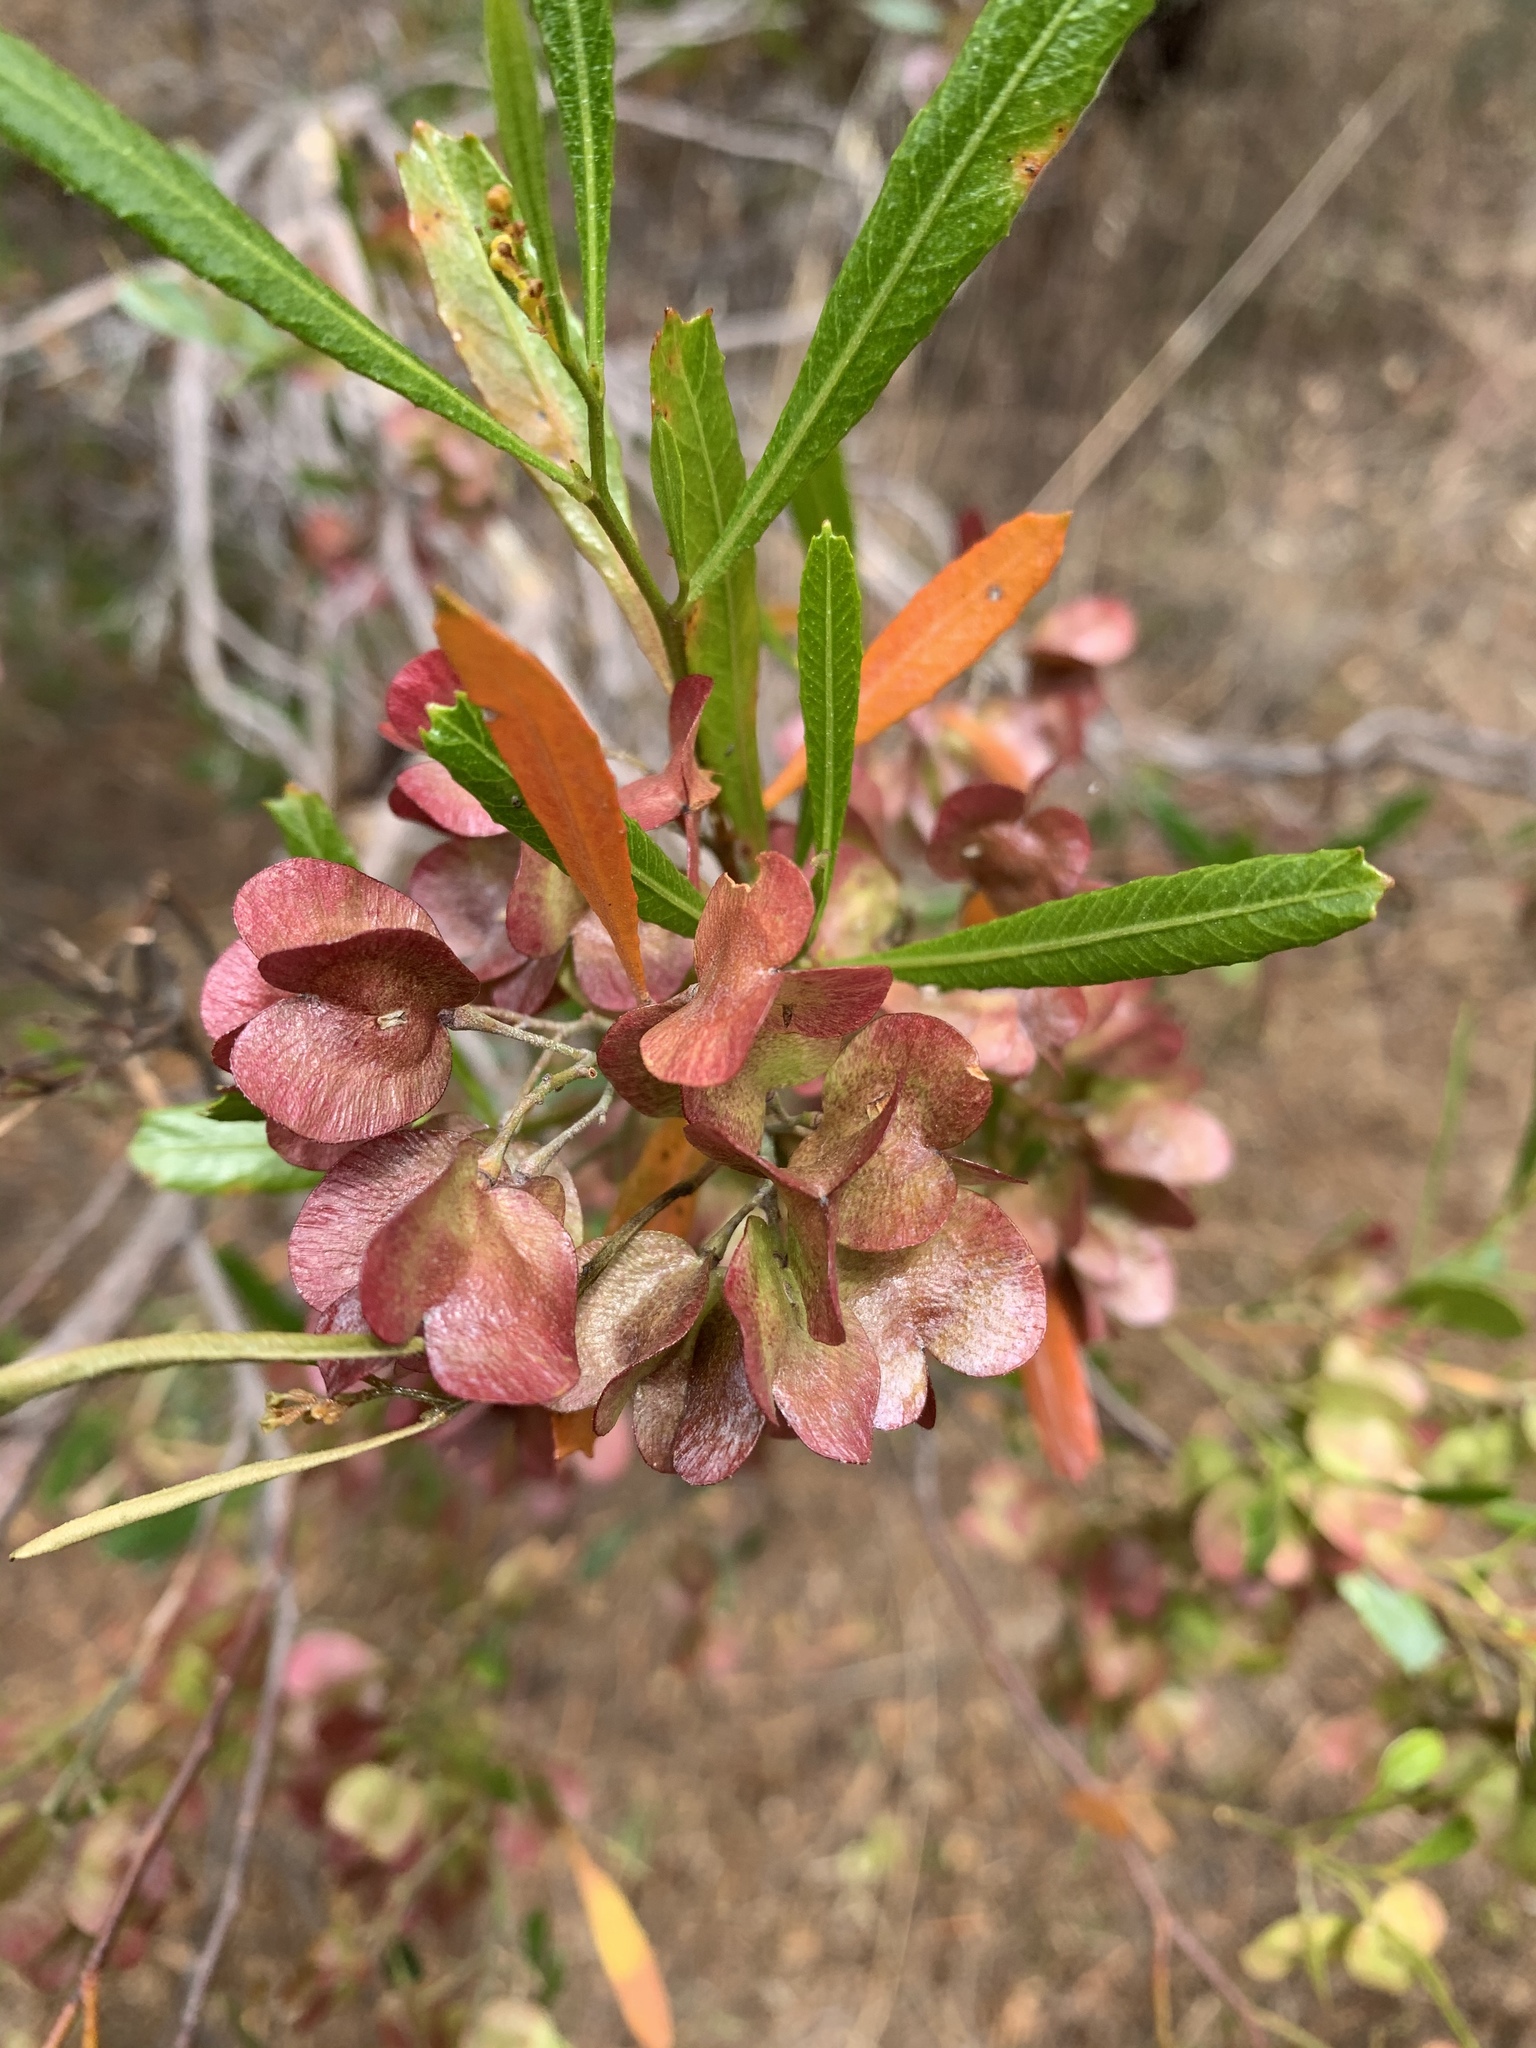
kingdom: Plantae
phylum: Tracheophyta
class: Magnoliopsida
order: Sapindales
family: Sapindaceae
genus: Dodonaea
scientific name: Dodonaea viscosa
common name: Hopbush
